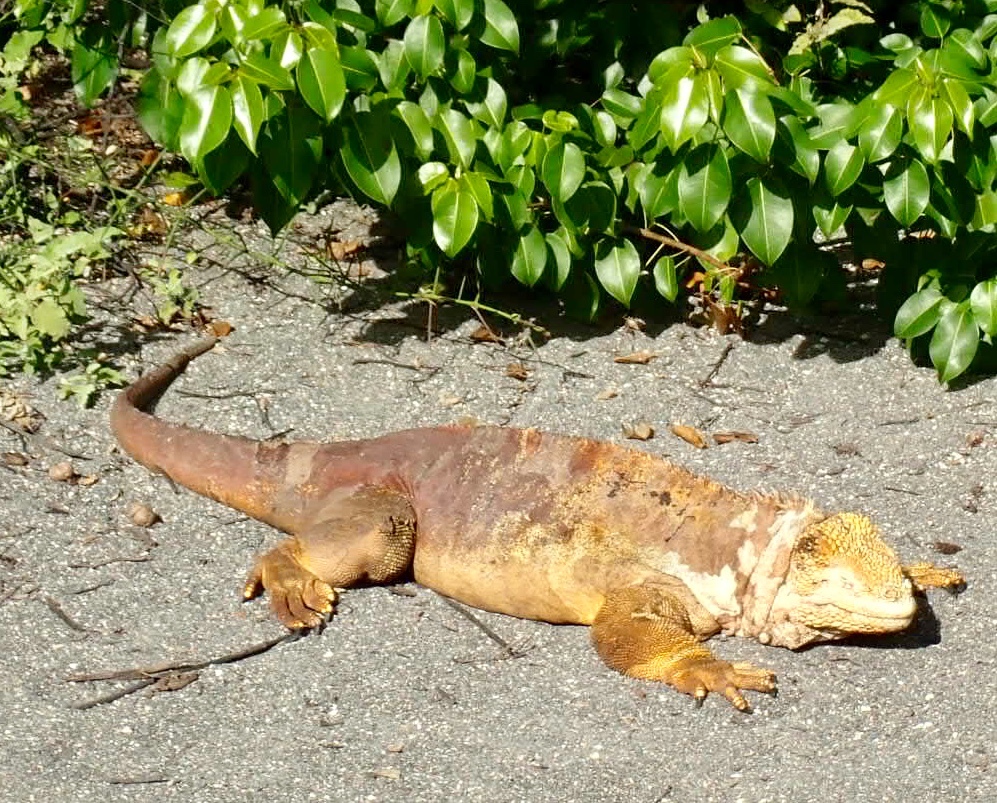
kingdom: Animalia
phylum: Chordata
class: Squamata
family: Iguanidae
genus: Conolophus
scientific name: Conolophus subcristatus
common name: Galapagos land iguana
